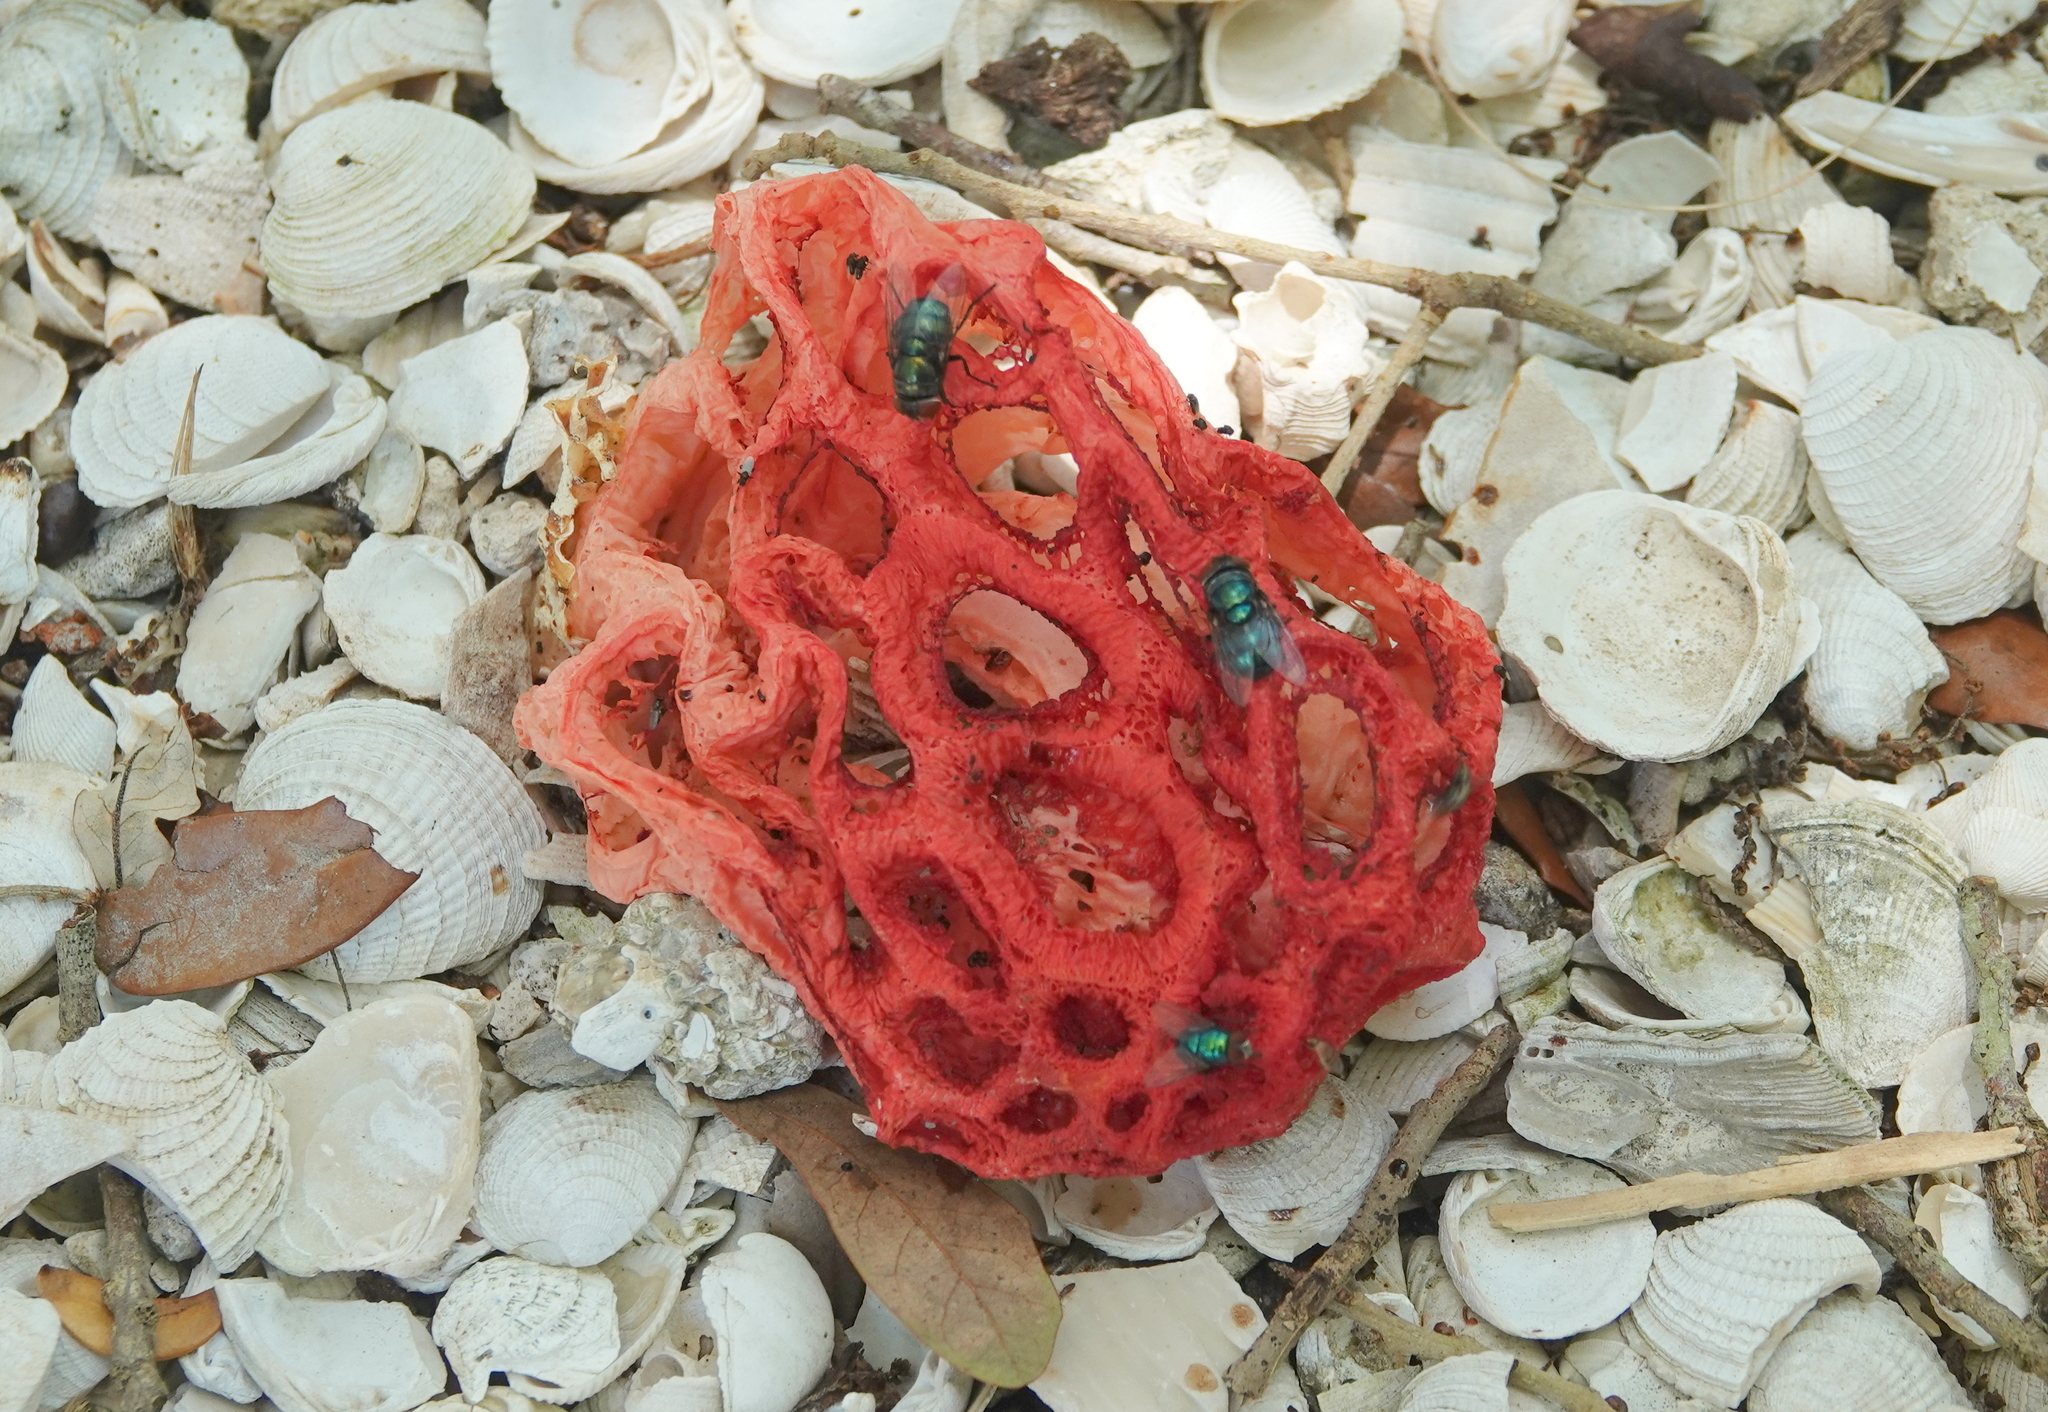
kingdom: Fungi
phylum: Basidiomycota
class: Agaricomycetes
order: Phallales
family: Phallaceae
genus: Clathrus
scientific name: Clathrus crispatus
